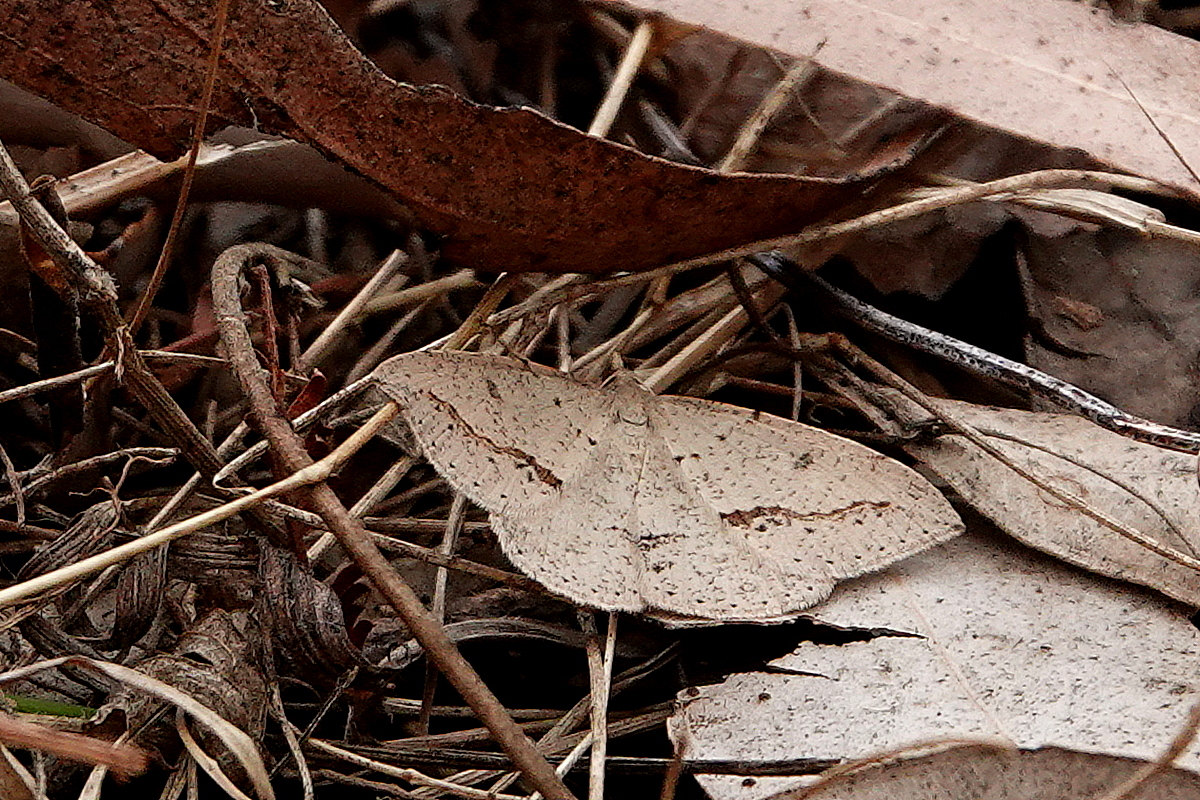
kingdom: Animalia
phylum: Arthropoda
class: Insecta
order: Lepidoptera
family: Geometridae
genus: Taxeotis
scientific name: Taxeotis stereospila
